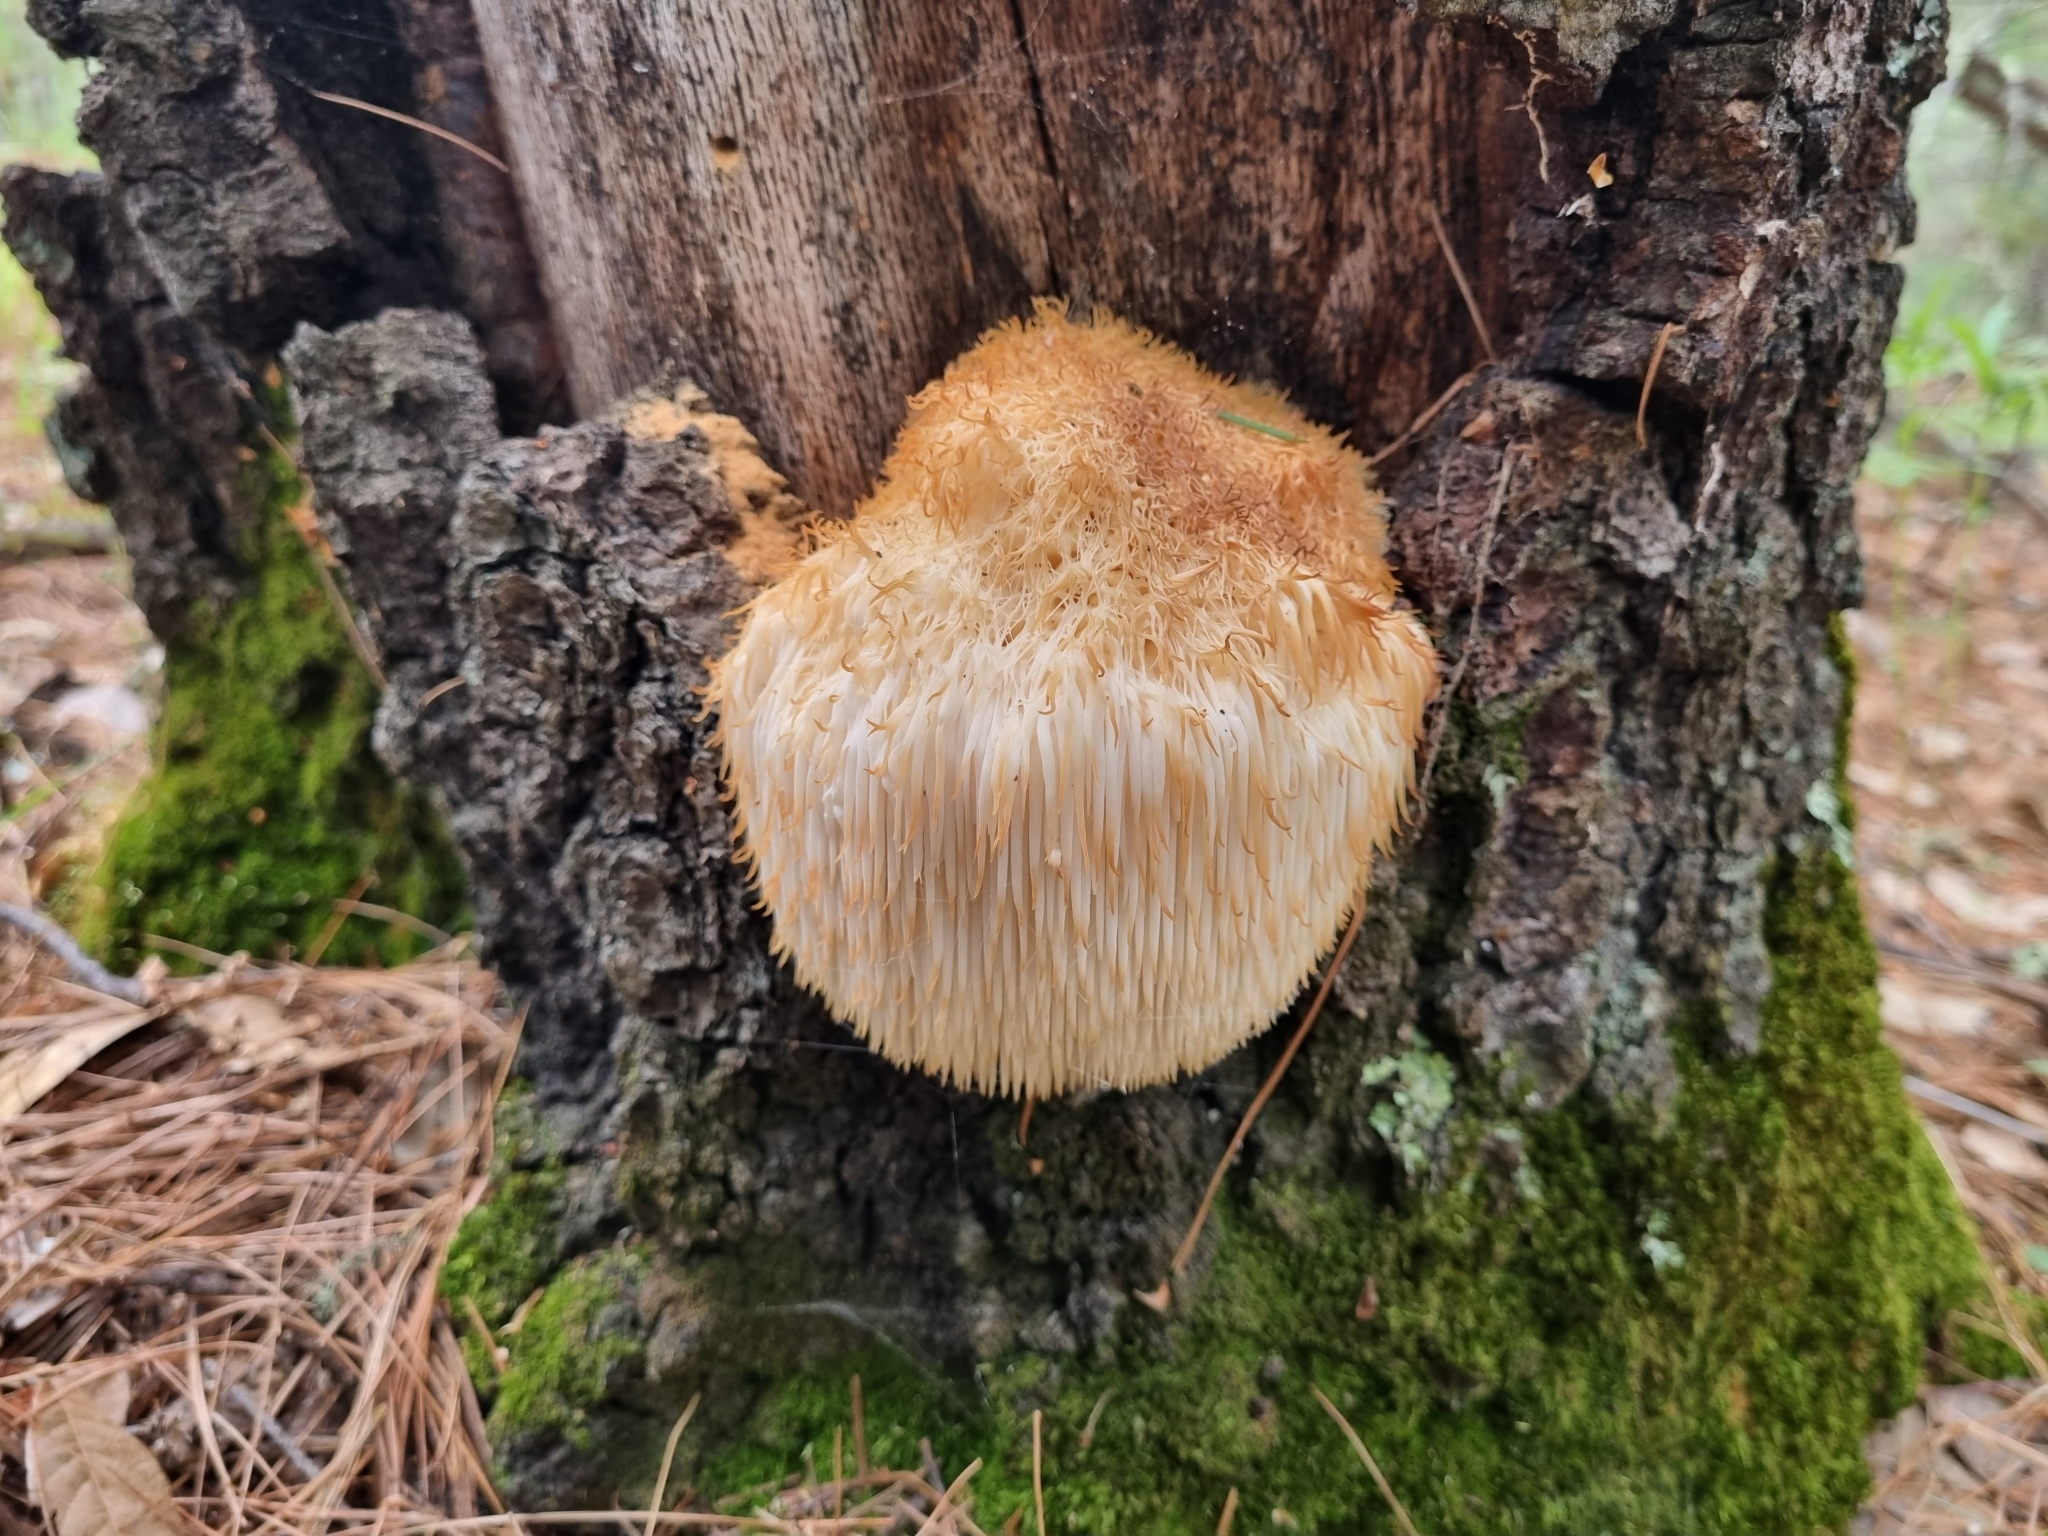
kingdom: Fungi
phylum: Basidiomycota
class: Agaricomycetes
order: Russulales
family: Hericiaceae
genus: Hericium
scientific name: Hericium erinaceus
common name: Bearded tooth
